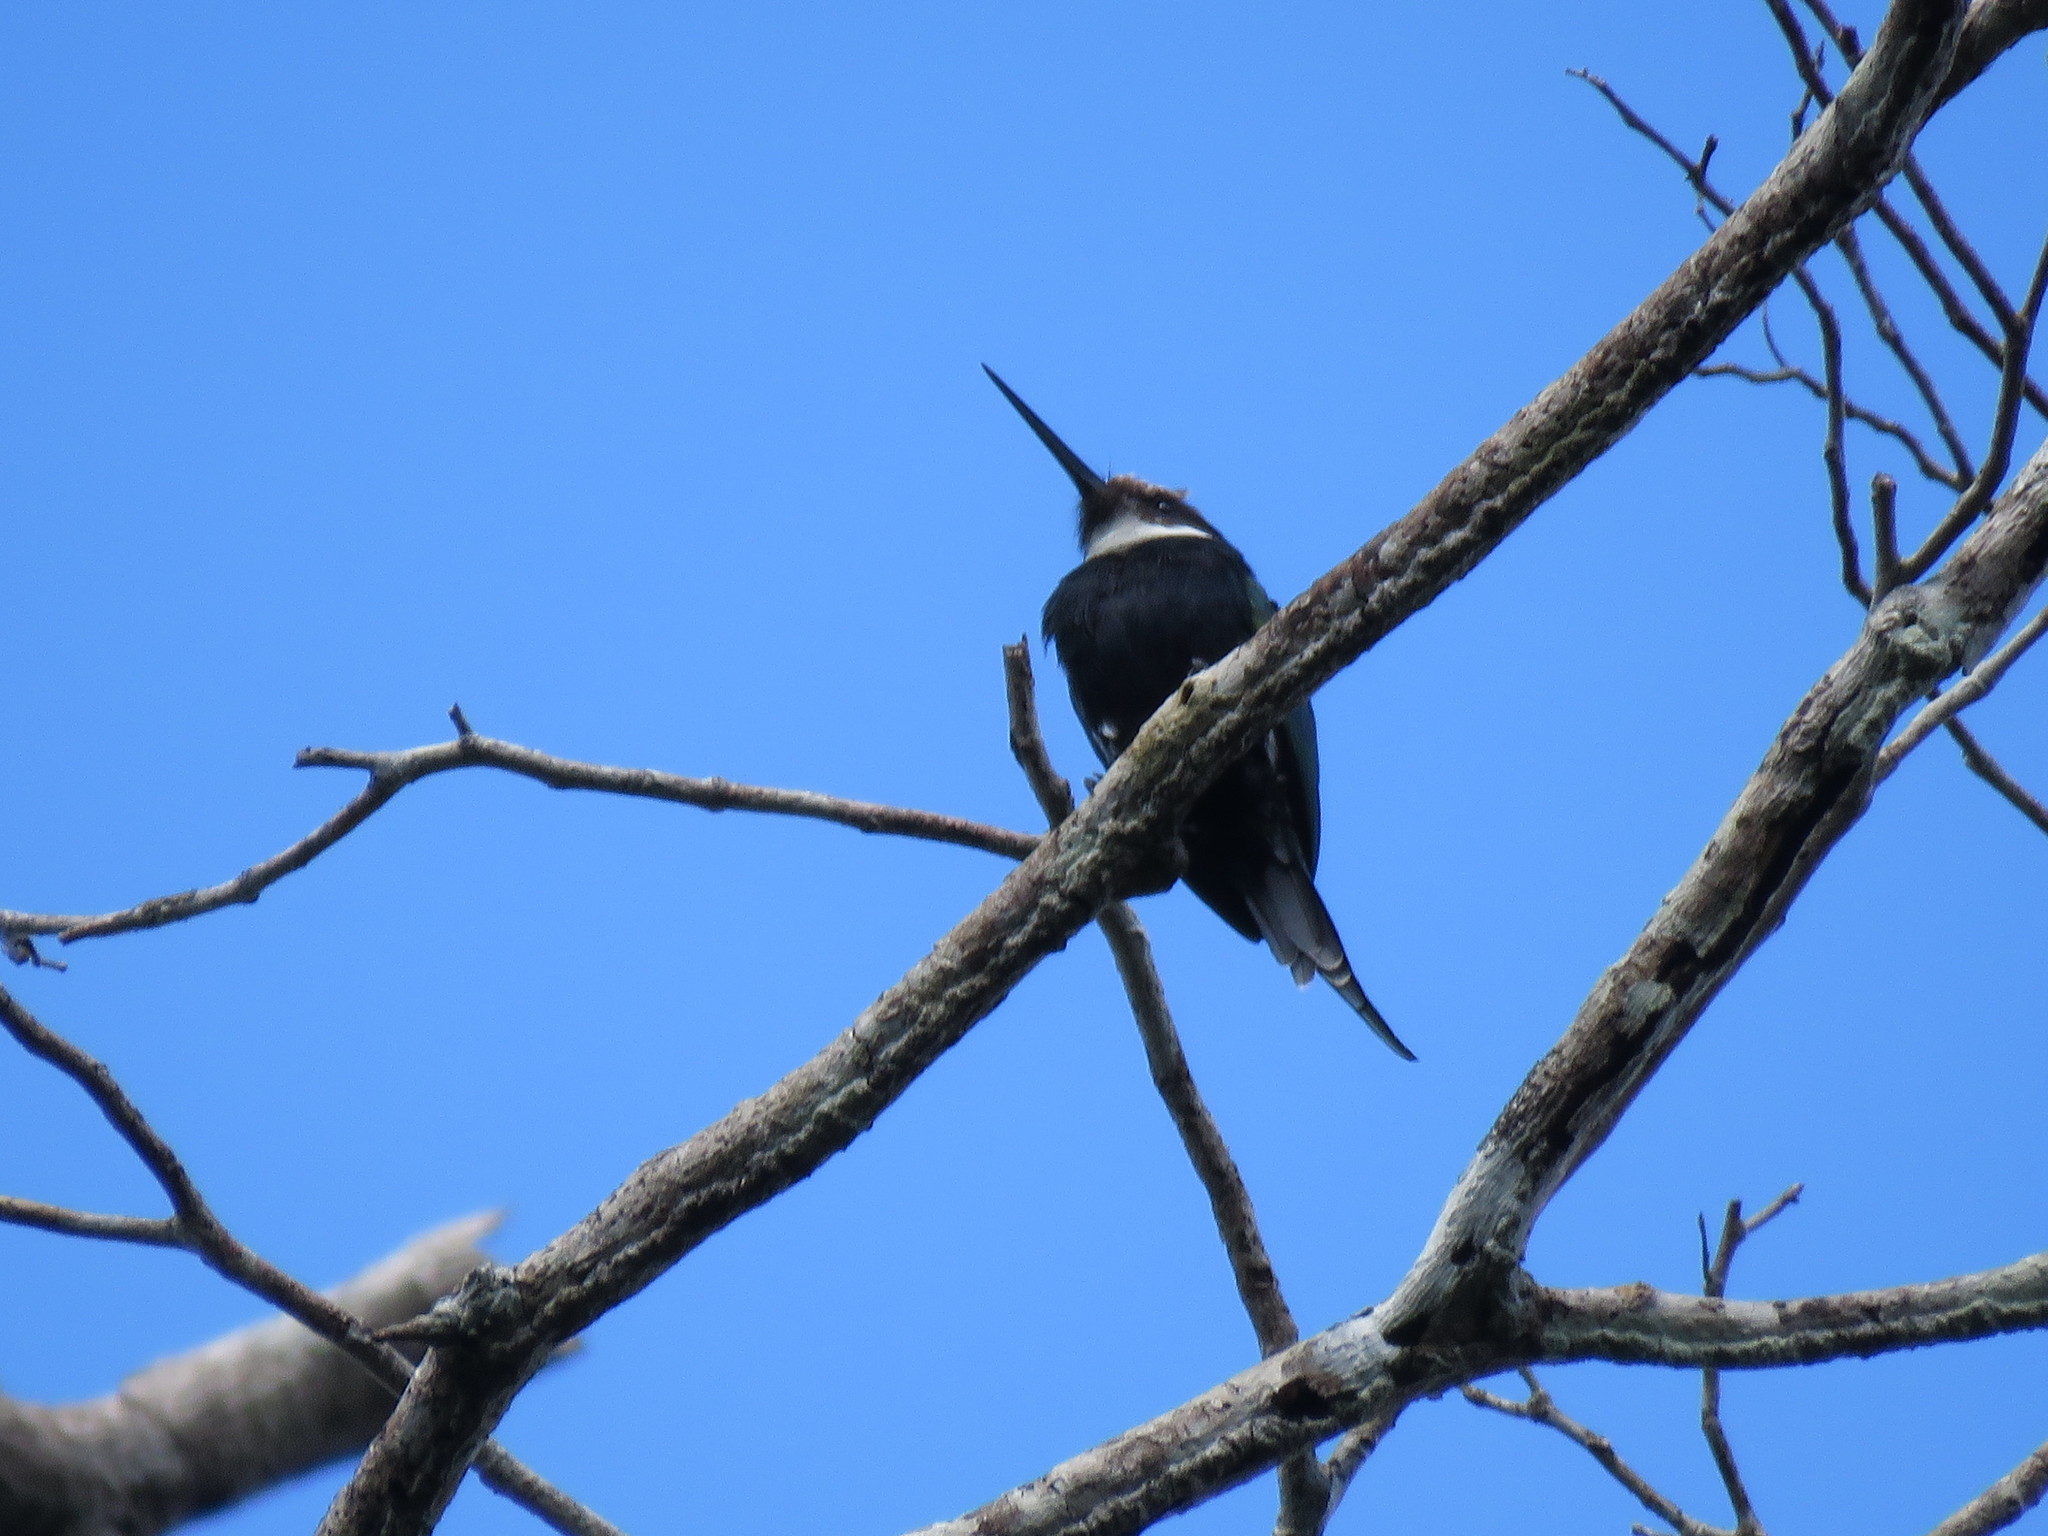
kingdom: Animalia
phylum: Chordata
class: Aves
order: Piciformes
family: Galbulidae
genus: Galbula
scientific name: Galbula dea
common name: Paradise jacamar
